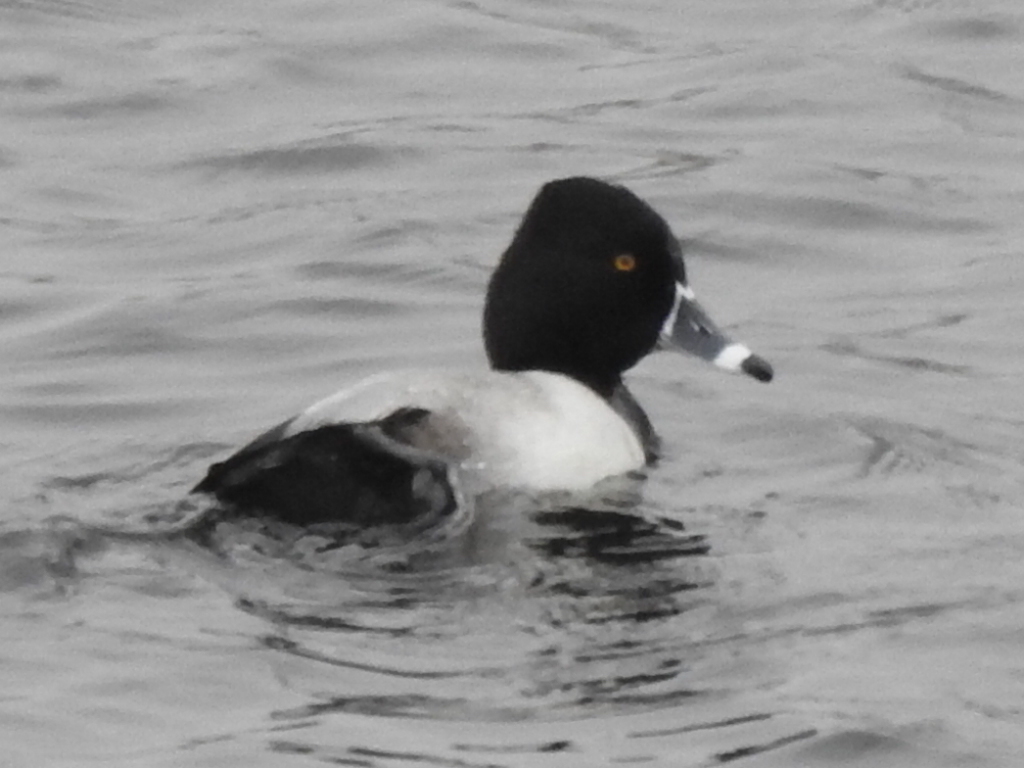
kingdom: Animalia
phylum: Chordata
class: Aves
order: Anseriformes
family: Anatidae
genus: Aythya
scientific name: Aythya collaris
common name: Ring-necked duck
